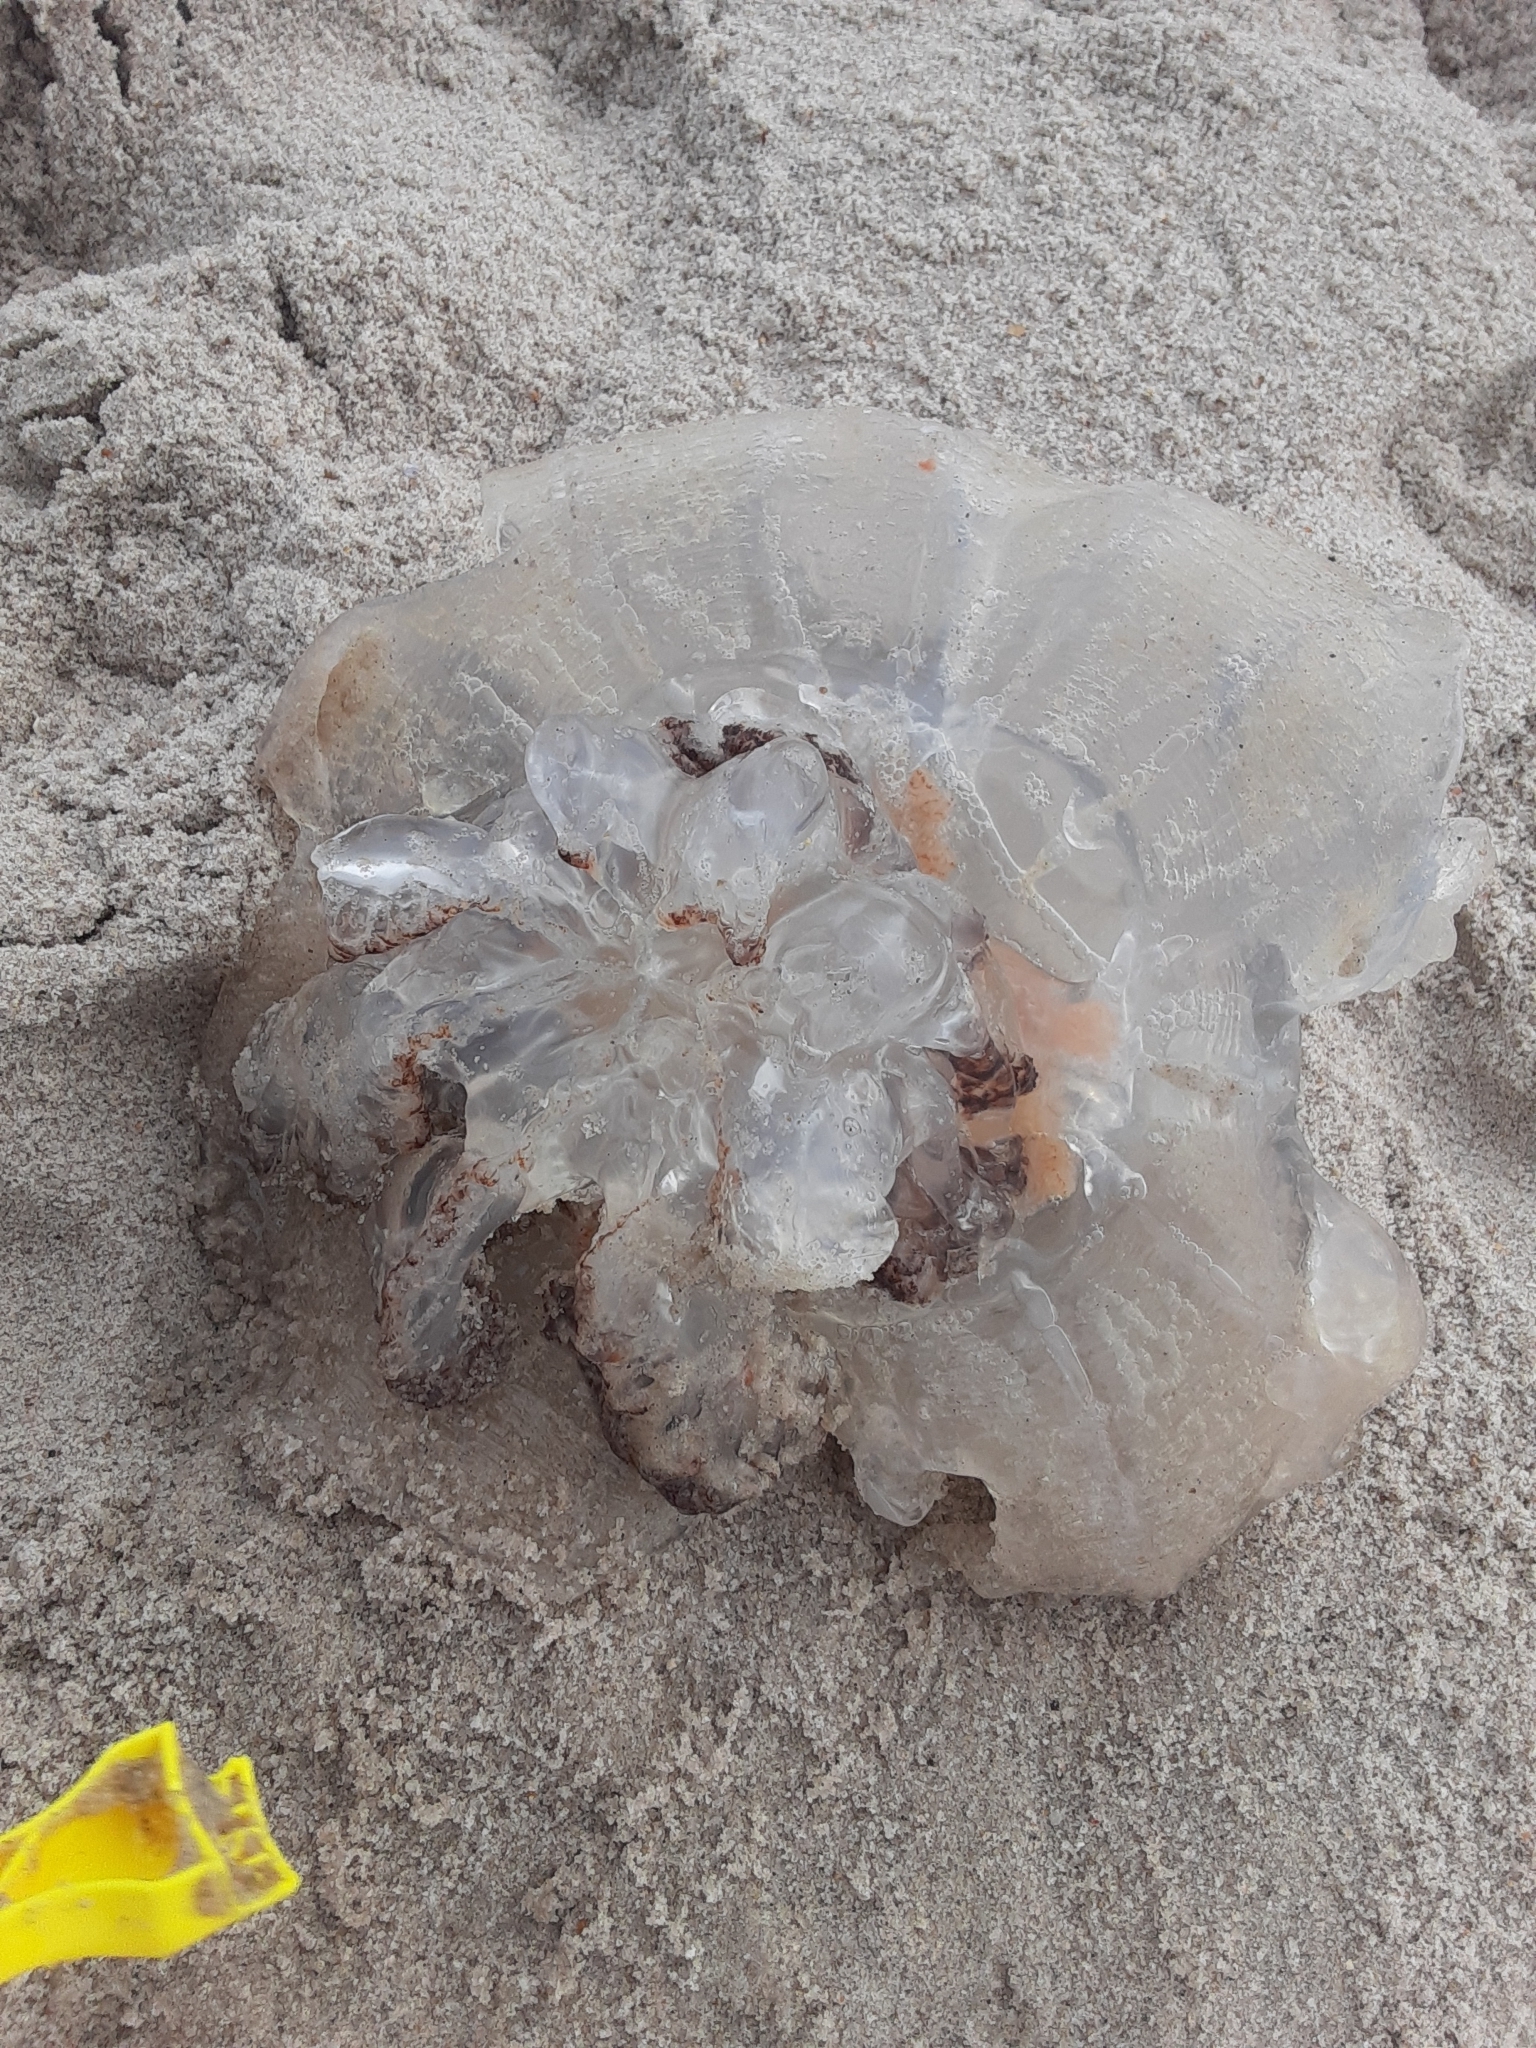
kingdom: Animalia
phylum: Cnidaria
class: Scyphozoa
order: Rhizostomeae
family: Rhizostomatidae
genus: Rhopilema
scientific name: Rhopilema verrilli
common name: Mushroom cap jellyfish
